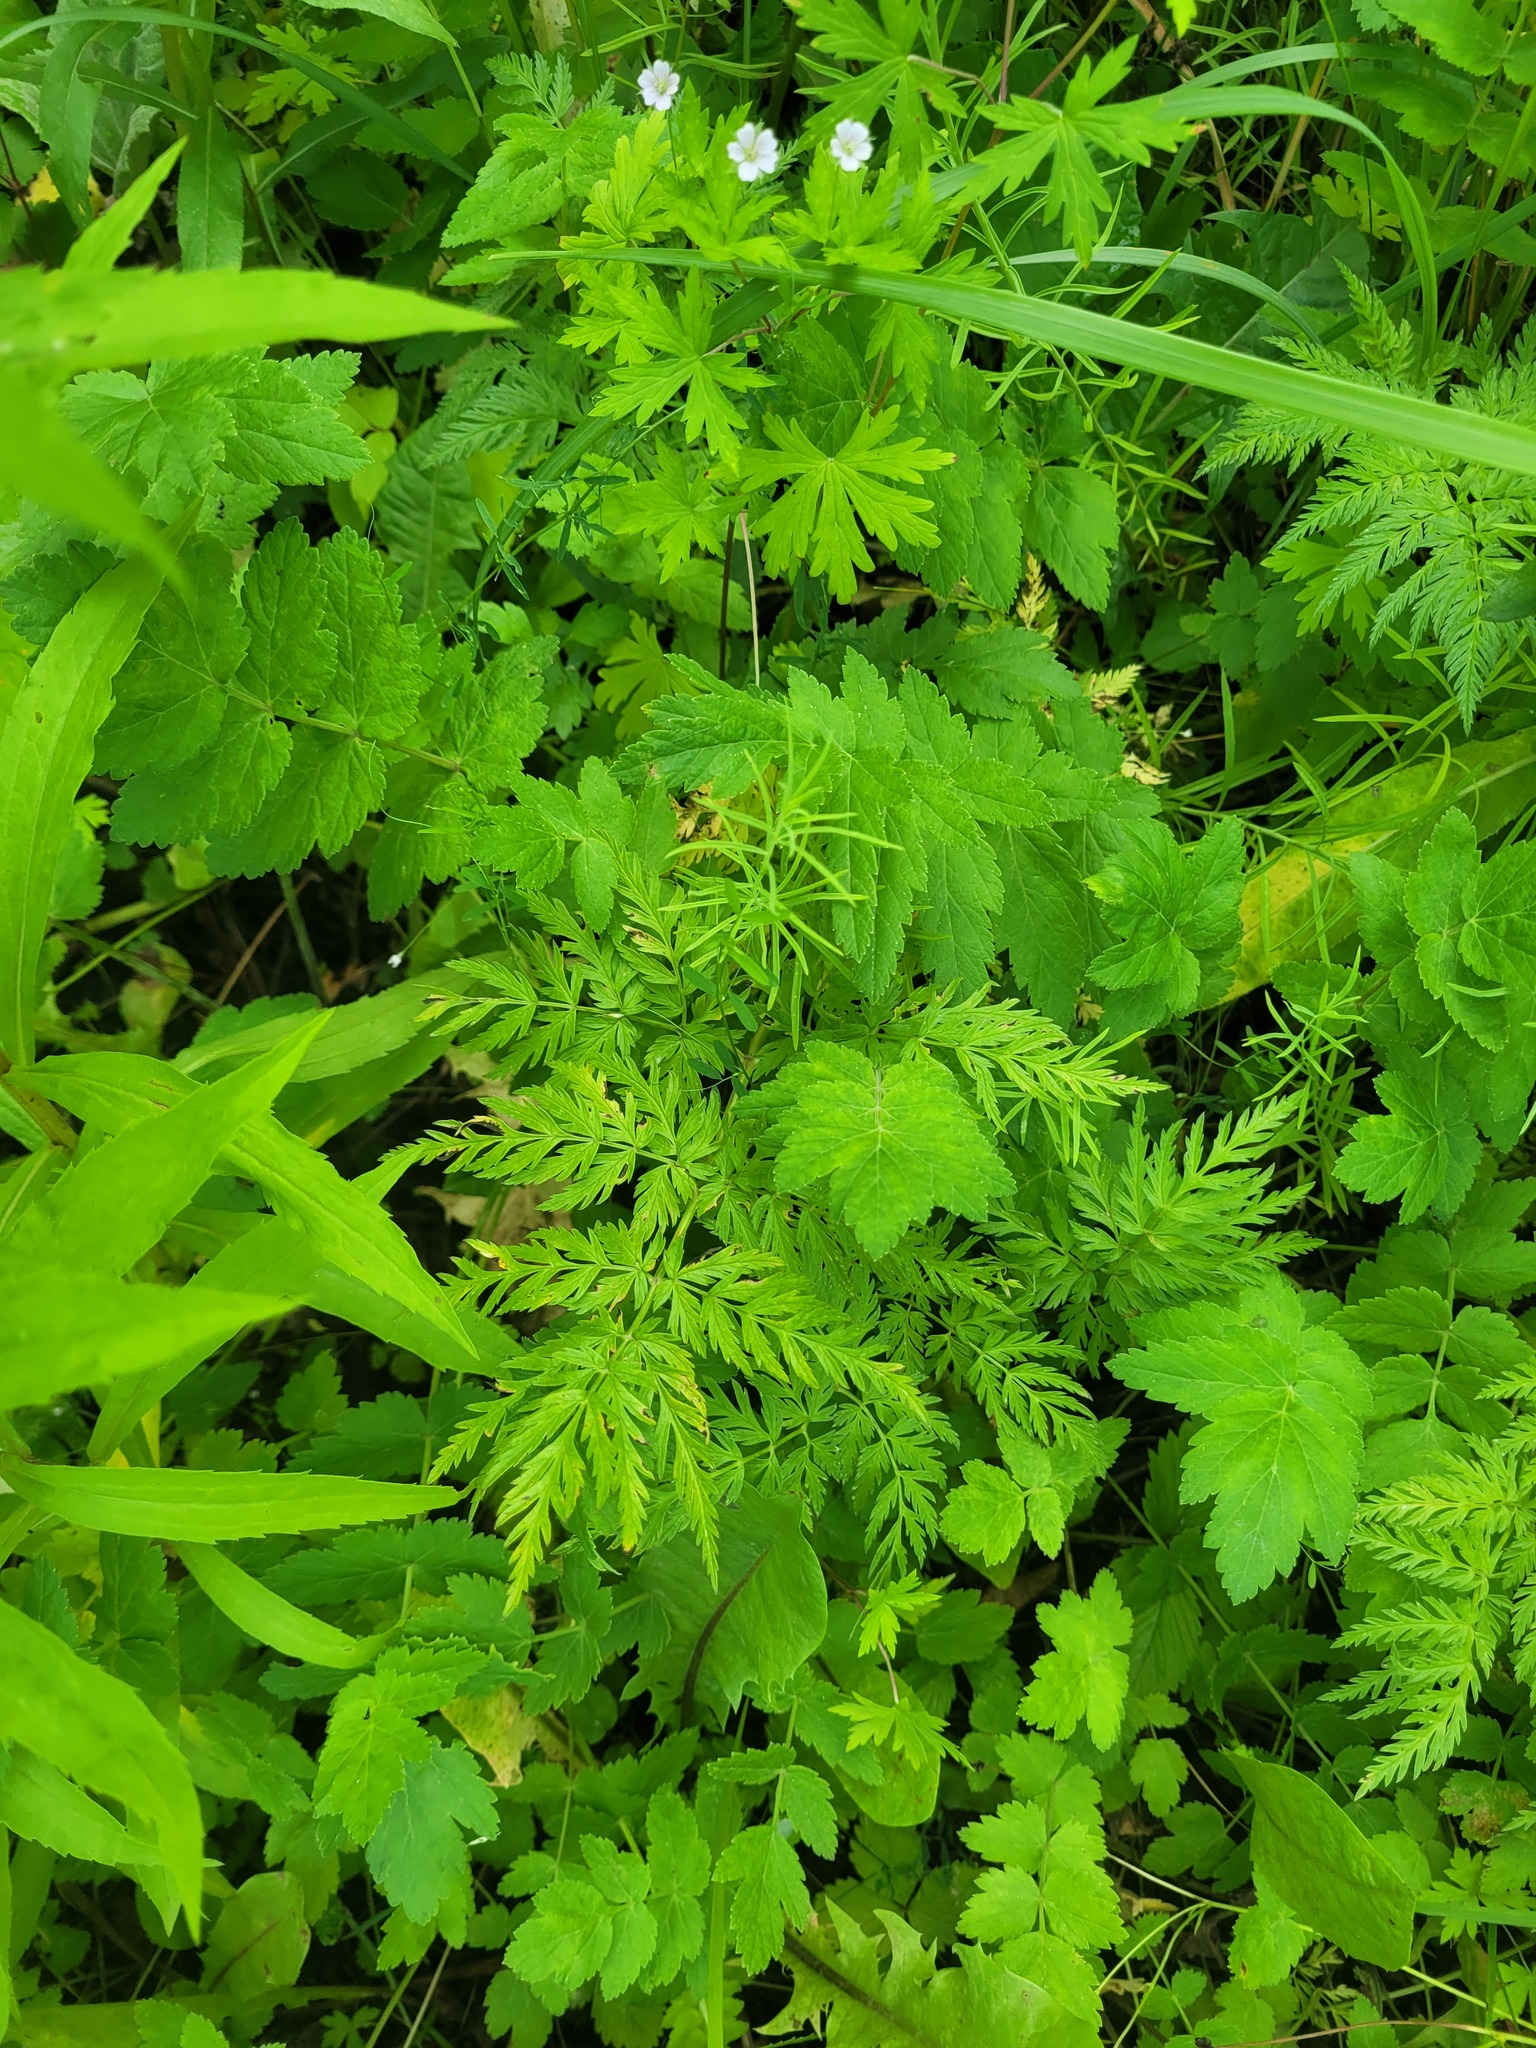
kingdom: Plantae
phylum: Tracheophyta
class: Magnoliopsida
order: Apiales
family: Apiaceae
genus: Anthriscus
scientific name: Anthriscus sylvestris
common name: Cow parsley
